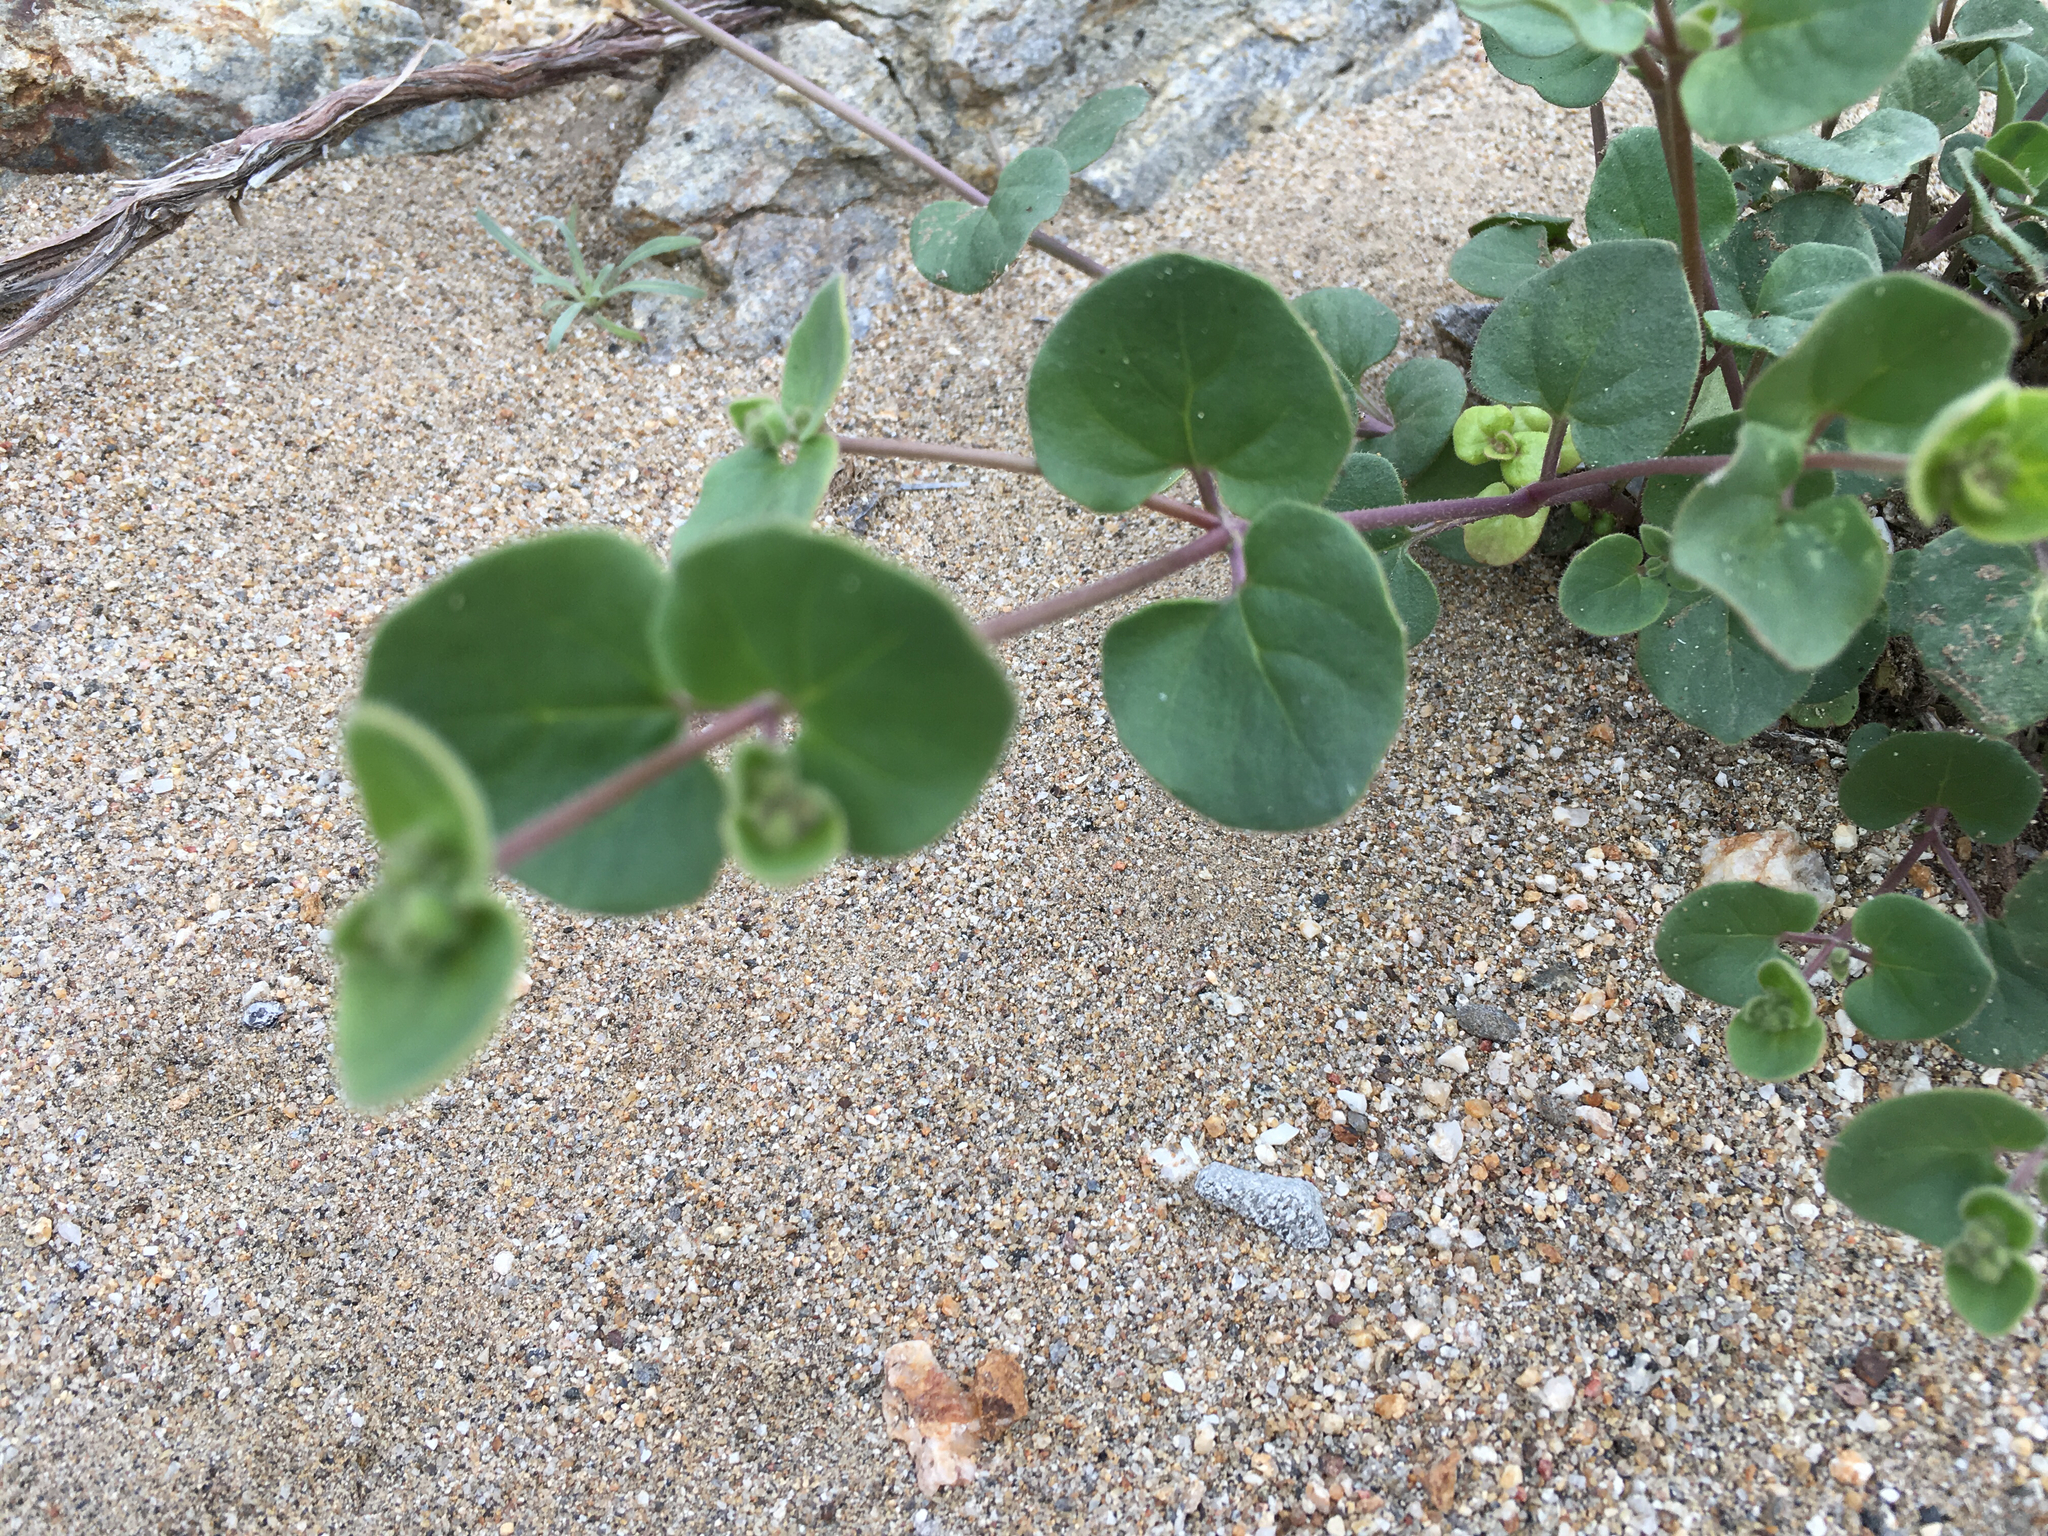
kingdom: Plantae
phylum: Tracheophyta
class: Magnoliopsida
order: Caryophyllales
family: Nyctaginaceae
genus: Mirabilis
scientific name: Mirabilis laevis
